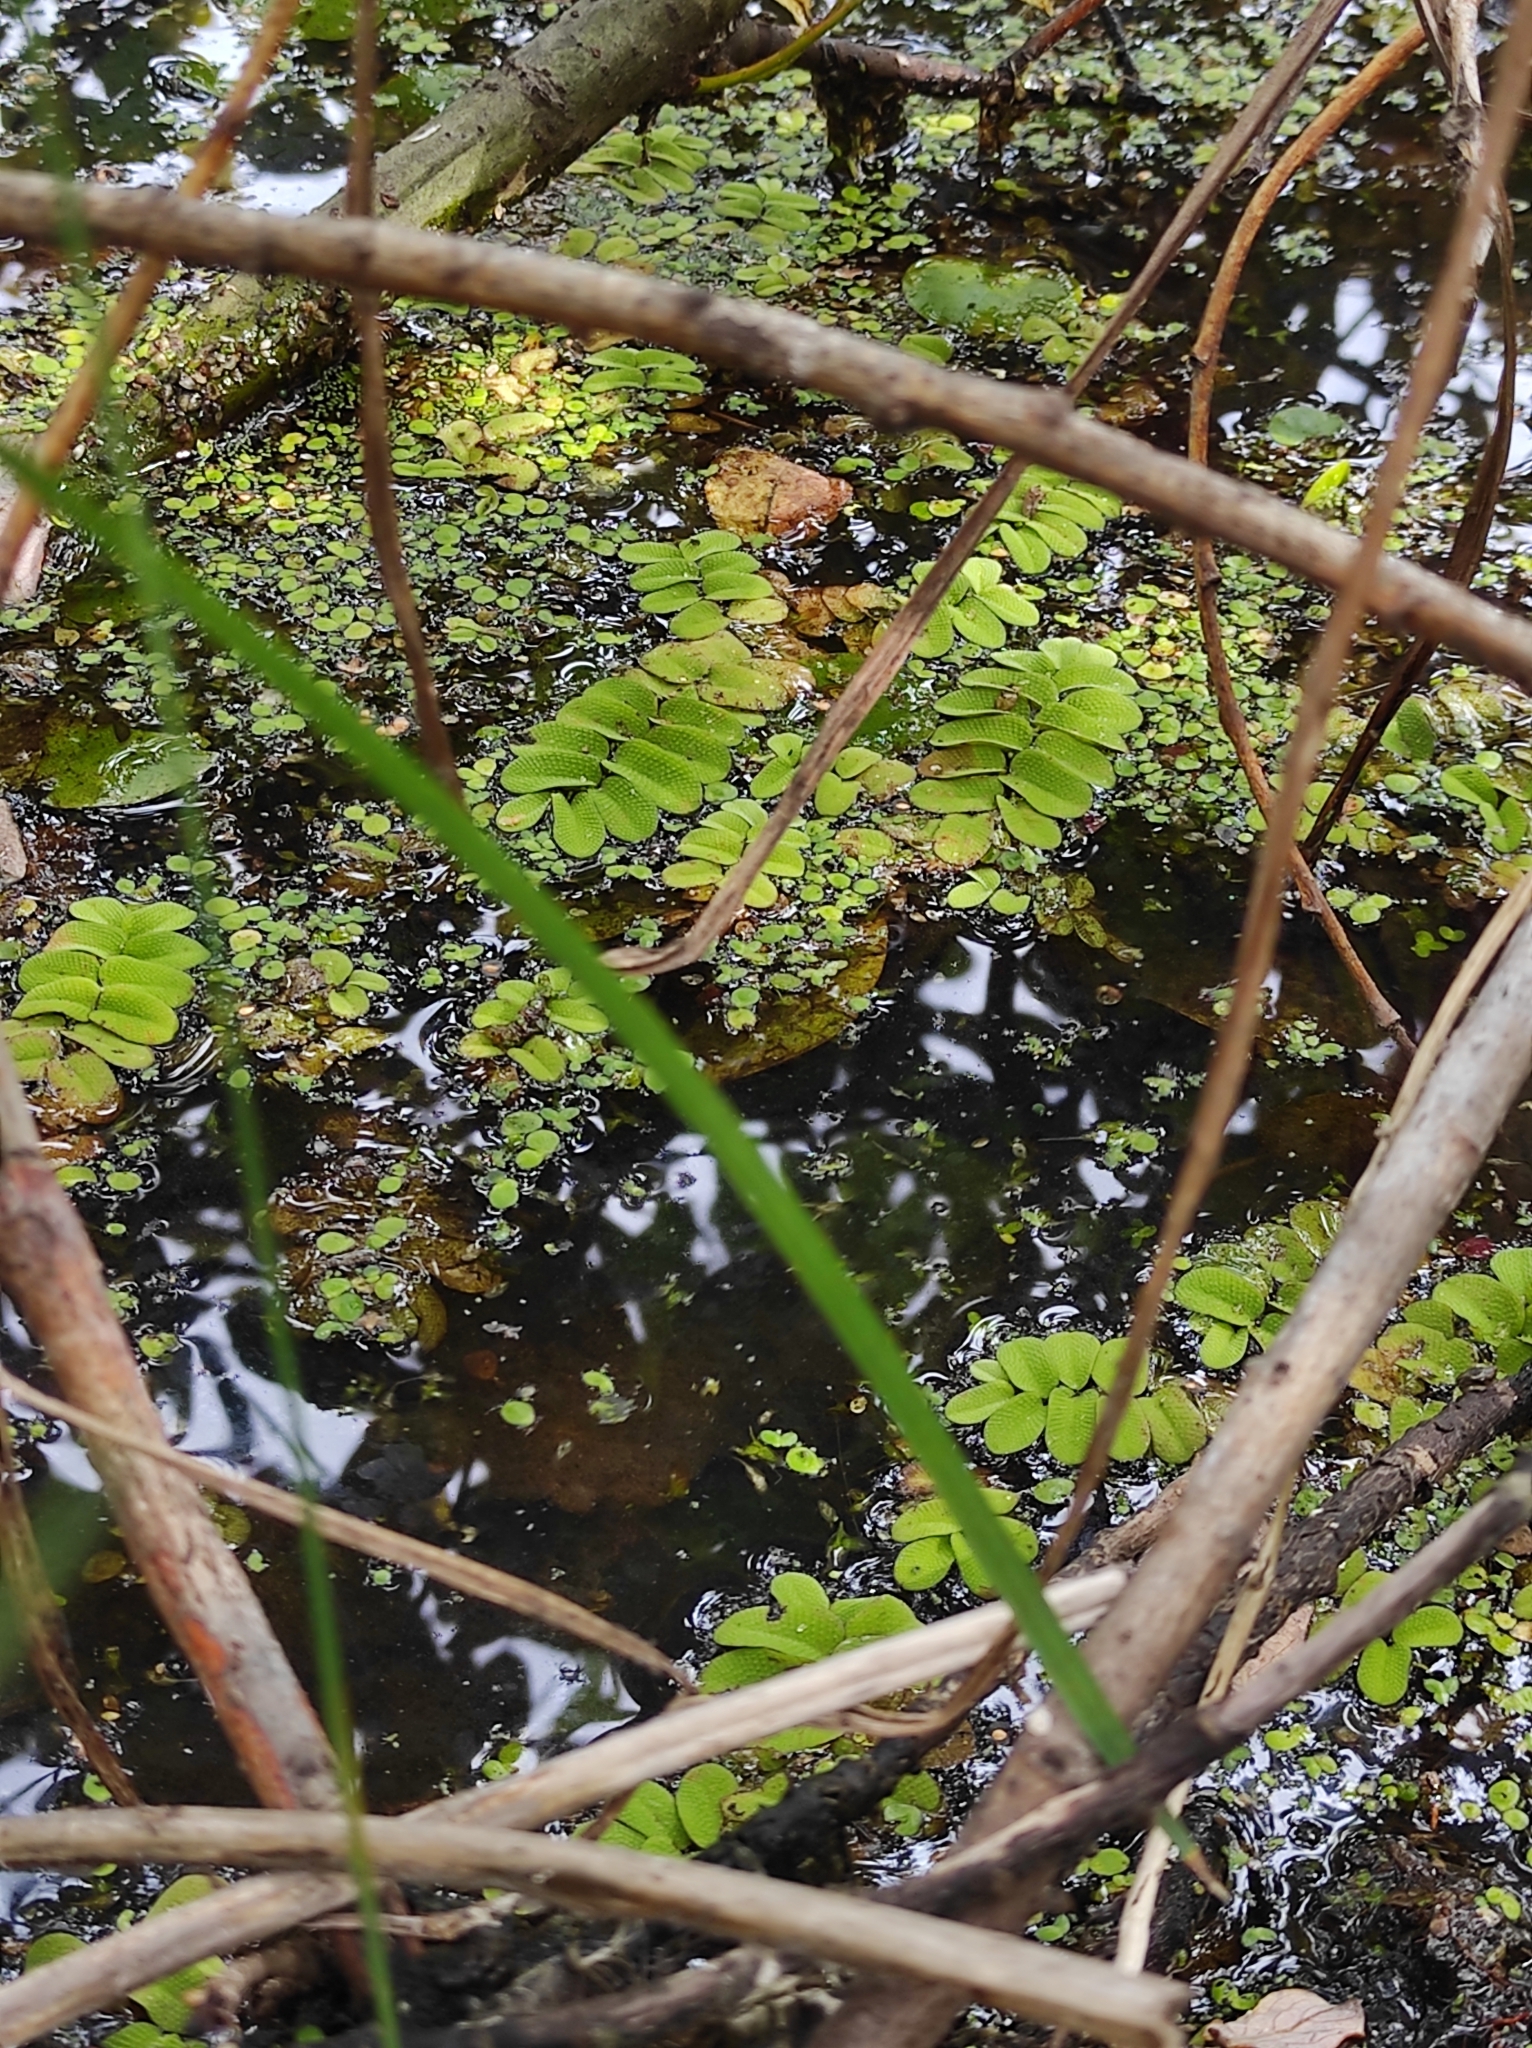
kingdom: Plantae
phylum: Tracheophyta
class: Polypodiopsida
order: Salviniales
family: Salviniaceae
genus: Salvinia
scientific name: Salvinia natans
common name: Floating fern
